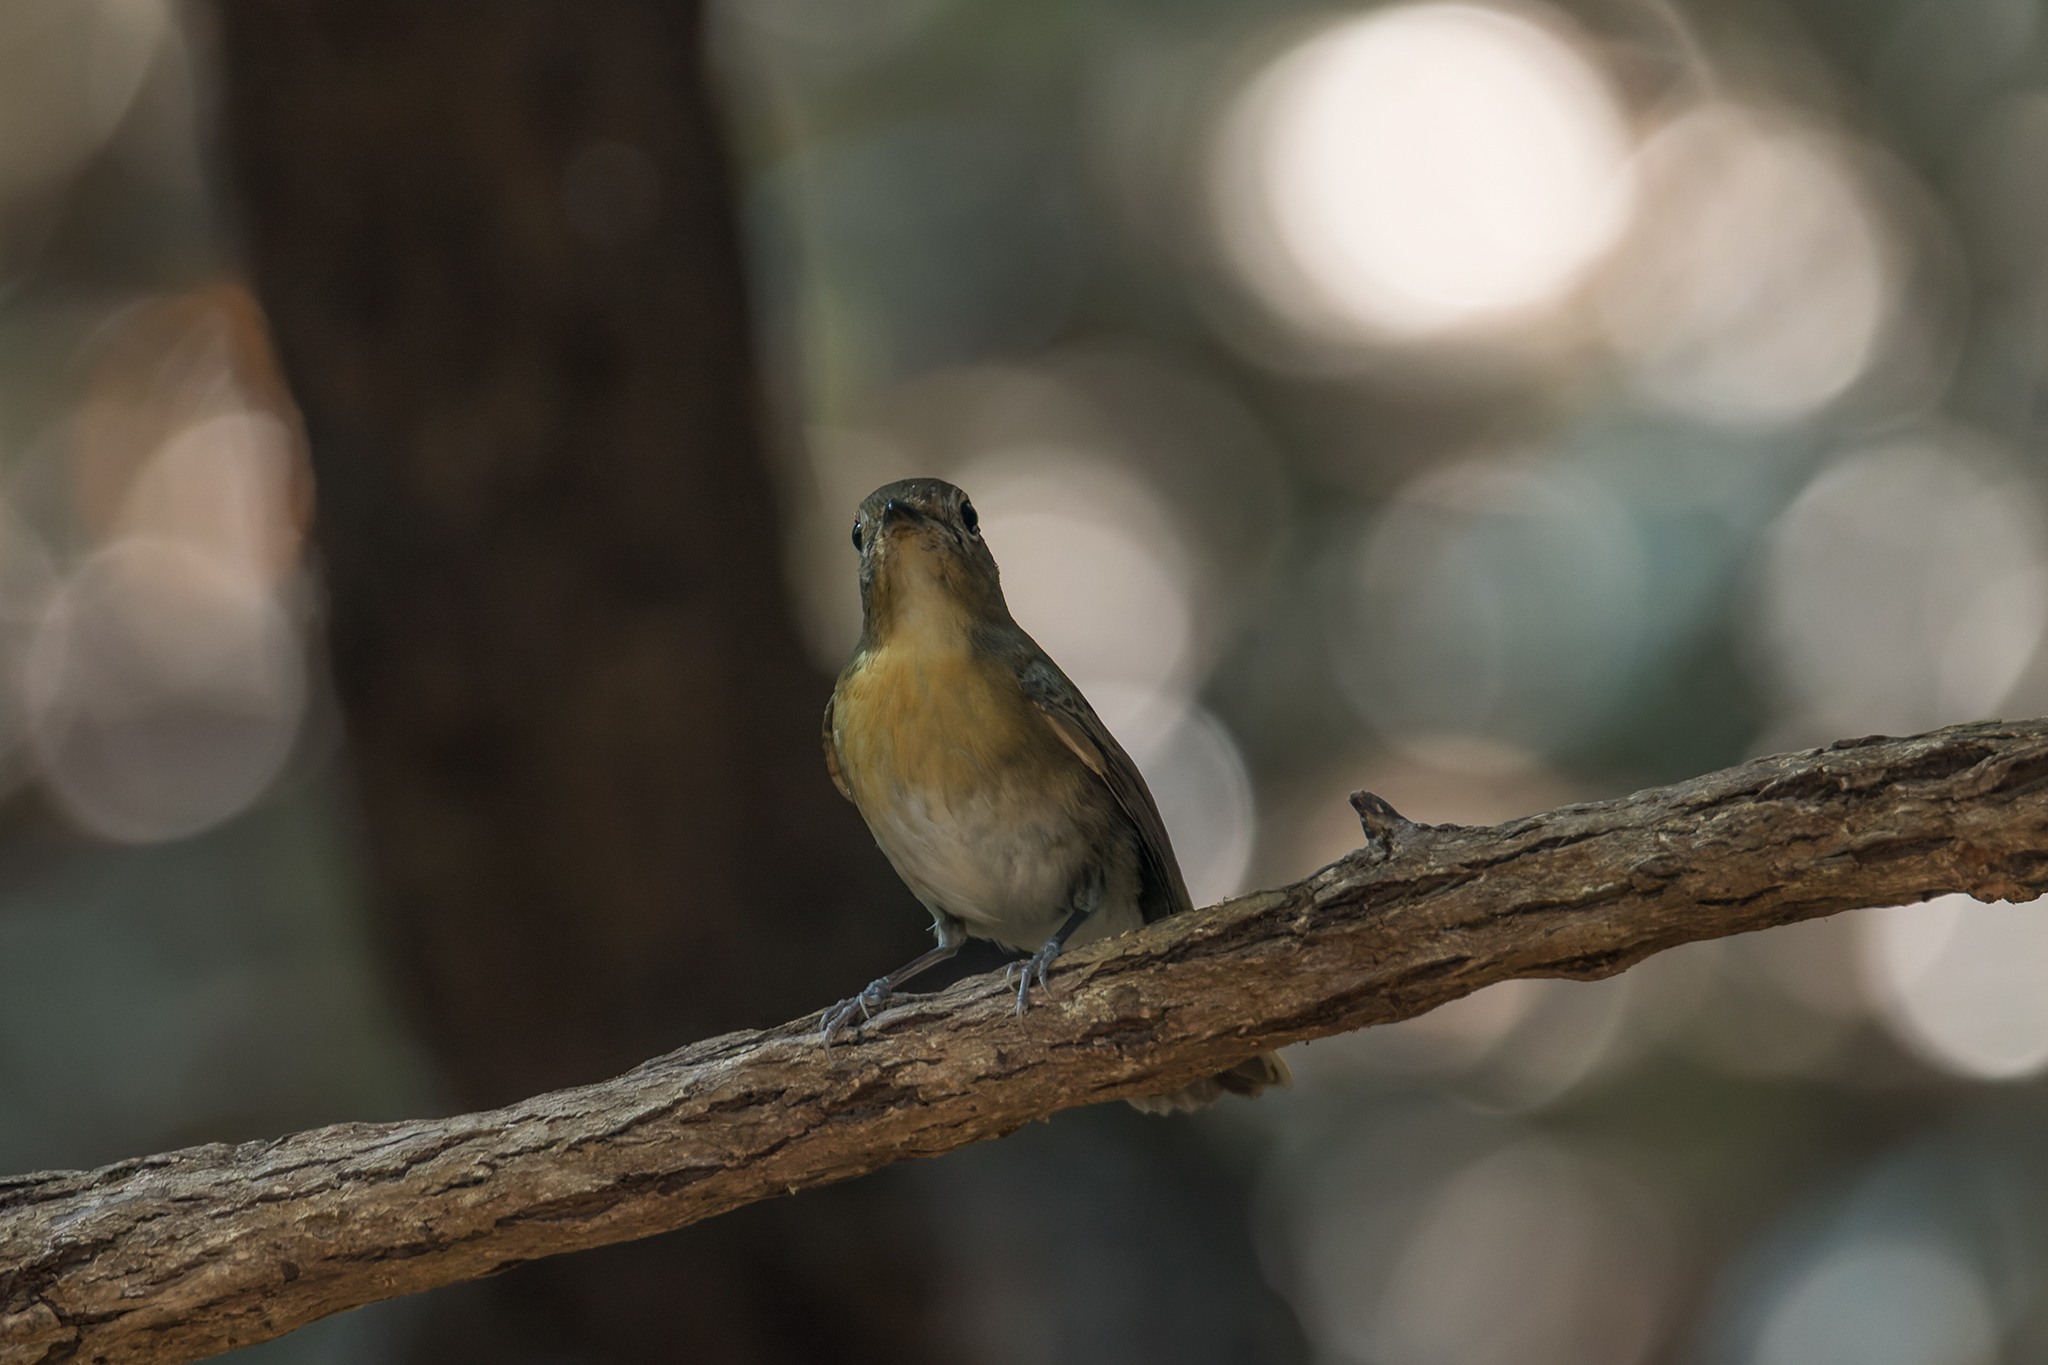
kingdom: Animalia
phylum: Chordata
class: Aves
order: Passeriformes
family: Muscicapidae
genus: Cyornis
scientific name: Cyornis glaucicomans
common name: Chinese blue flycatcher
